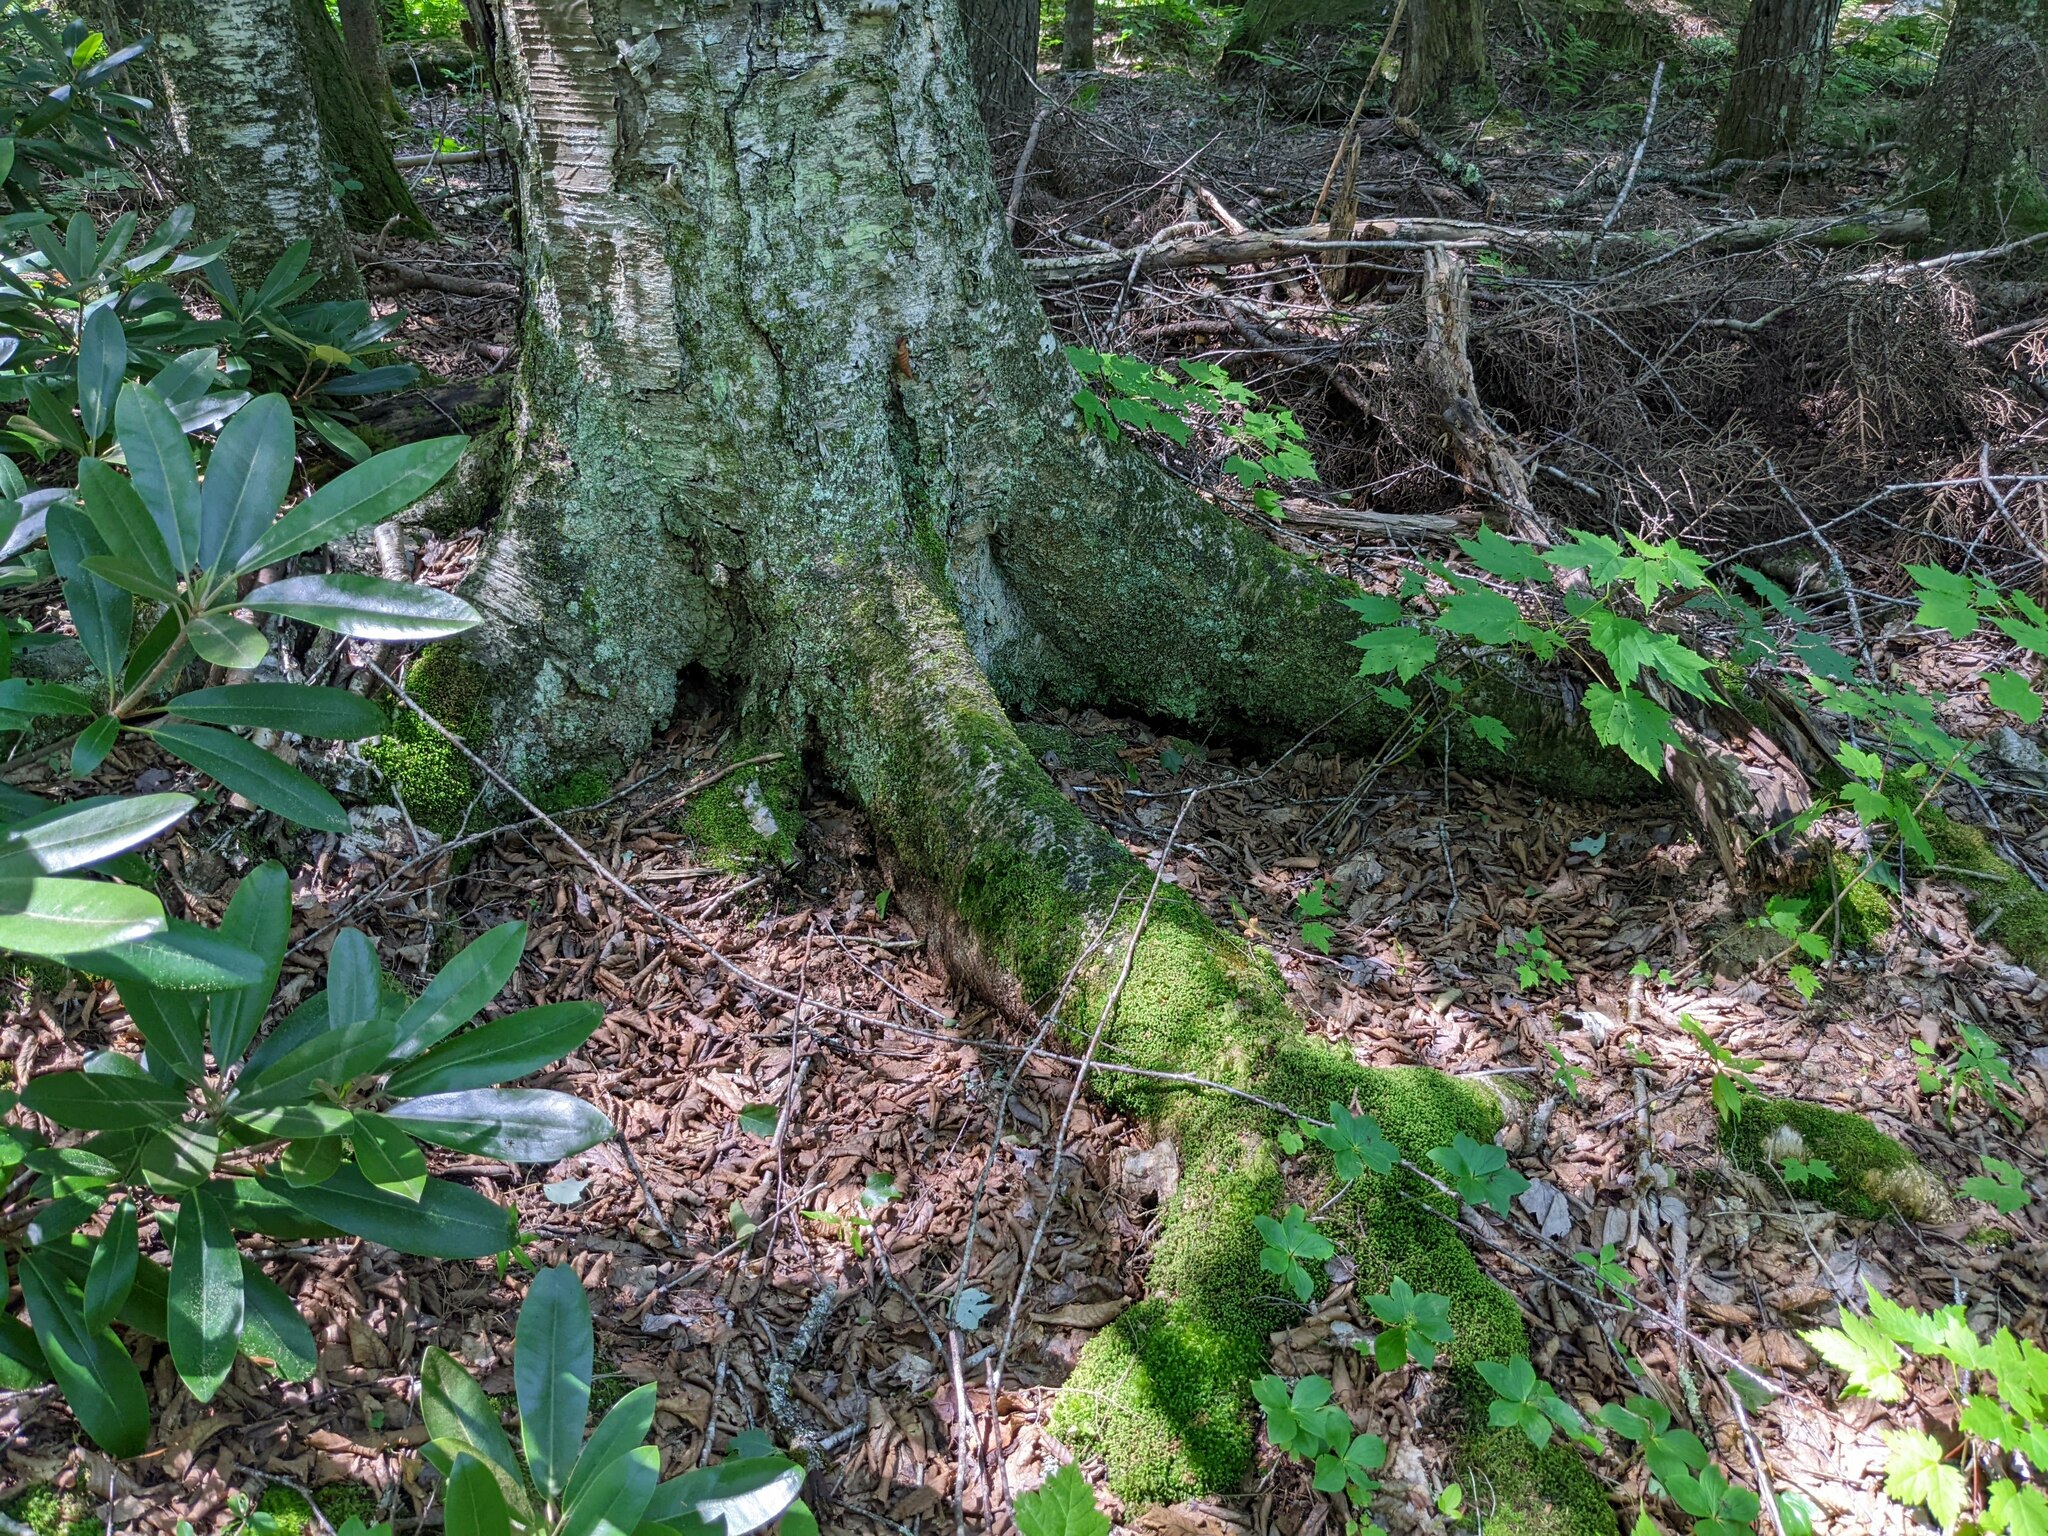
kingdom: Plantae
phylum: Tracheophyta
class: Magnoliopsida
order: Fagales
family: Betulaceae
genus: Betula
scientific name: Betula alleghaniensis
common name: Yellow birch
